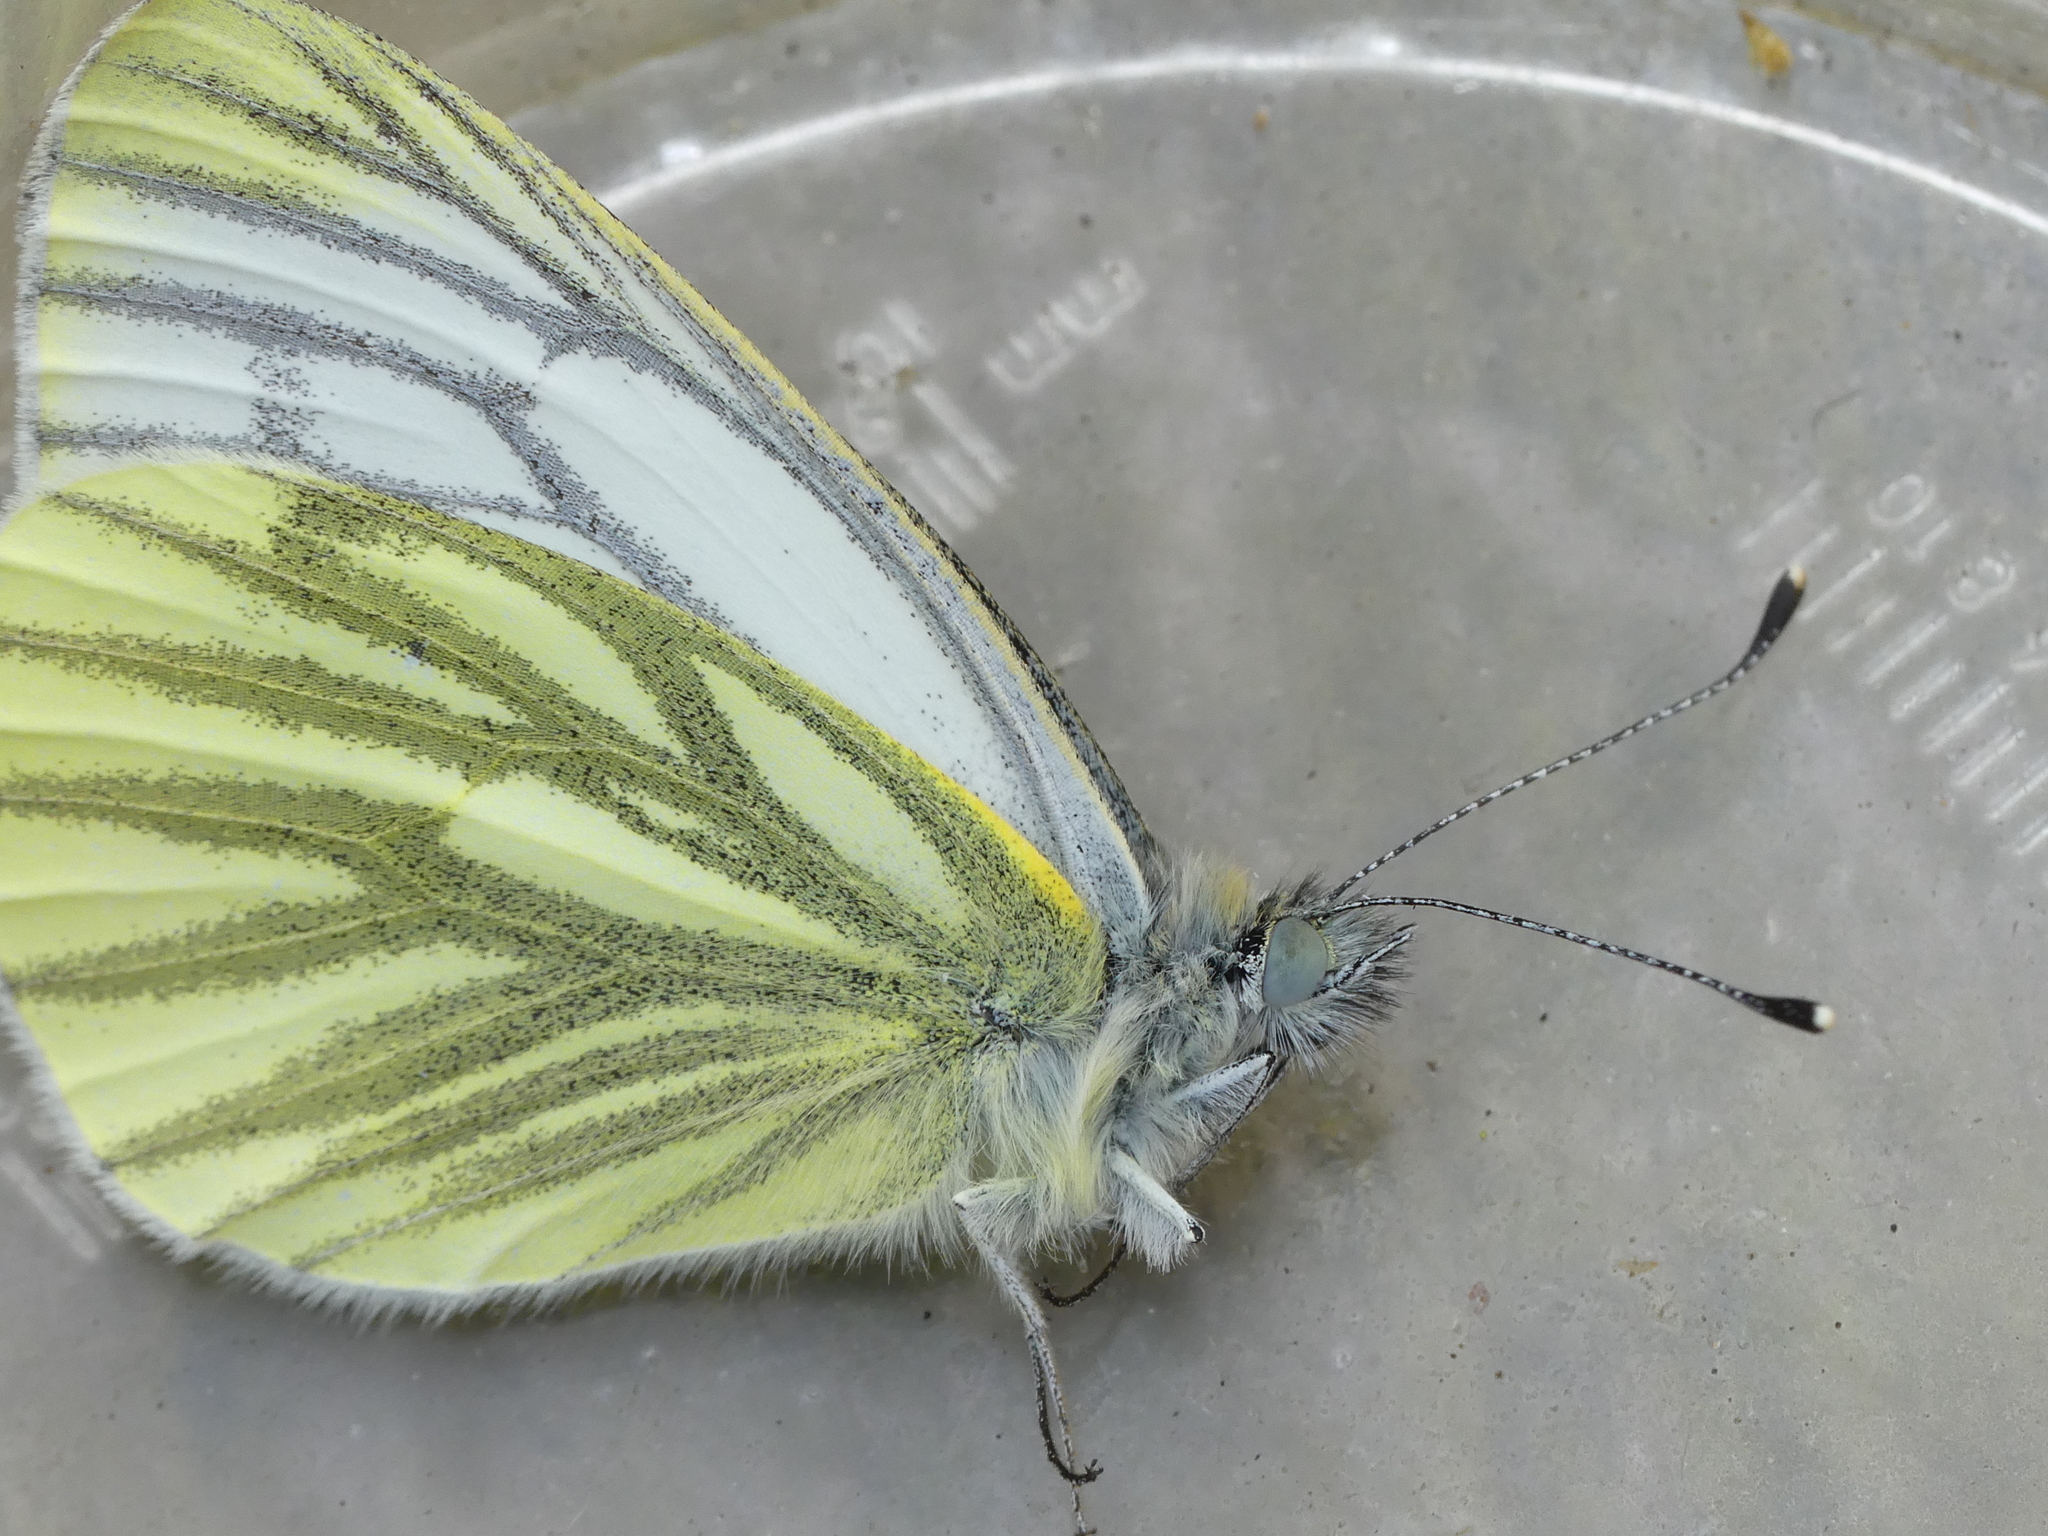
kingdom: Animalia
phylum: Arthropoda
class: Insecta
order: Lepidoptera
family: Pieridae
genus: Pieris
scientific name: Pieris napi
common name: Green-veined white
